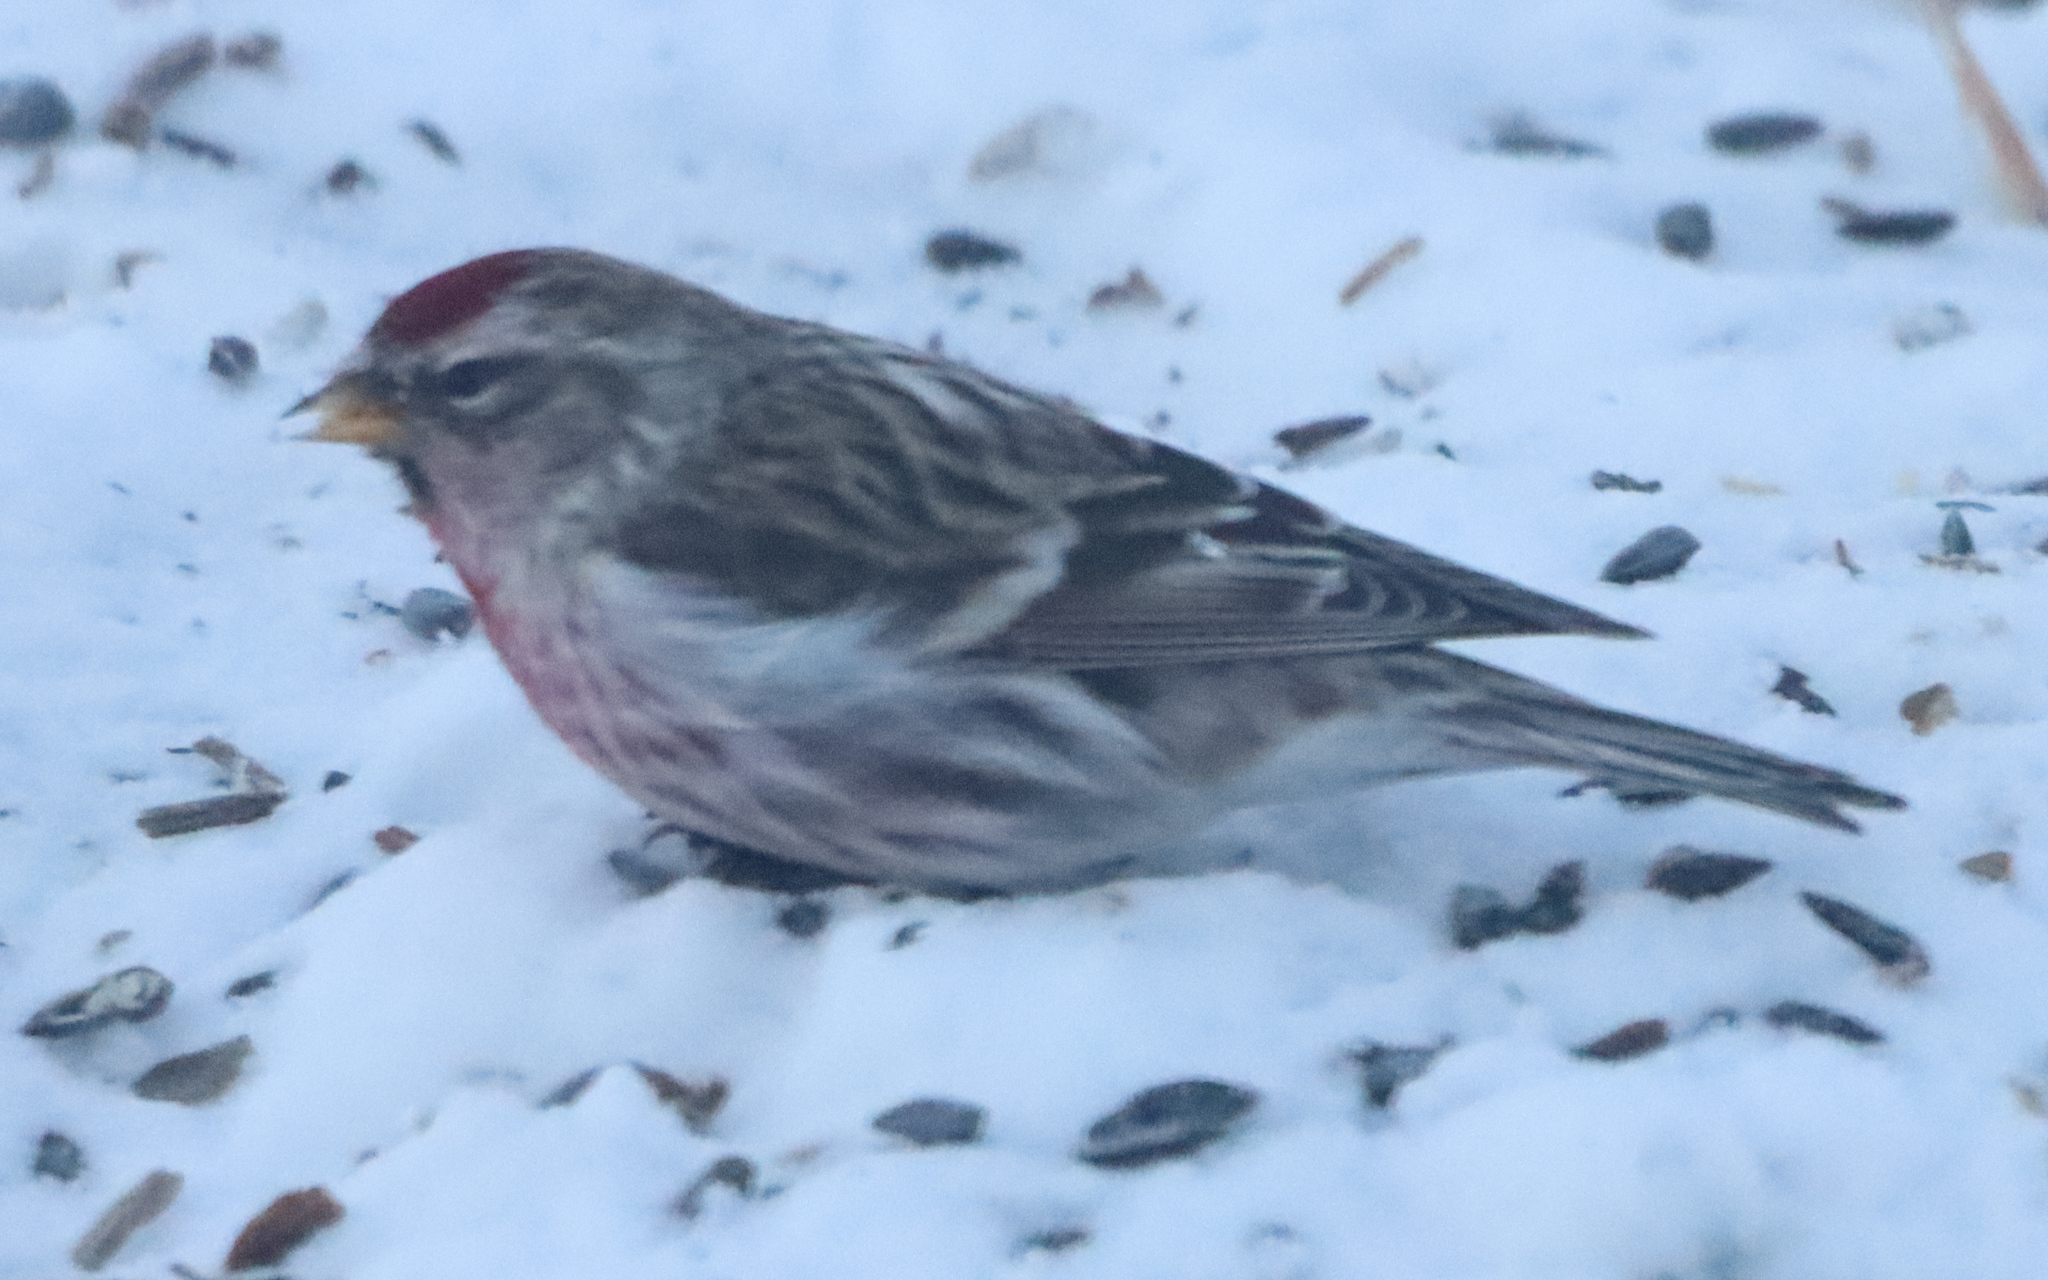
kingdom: Animalia
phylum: Chordata
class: Aves
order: Passeriformes
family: Fringillidae
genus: Acanthis
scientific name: Acanthis flammea
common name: Common redpoll
